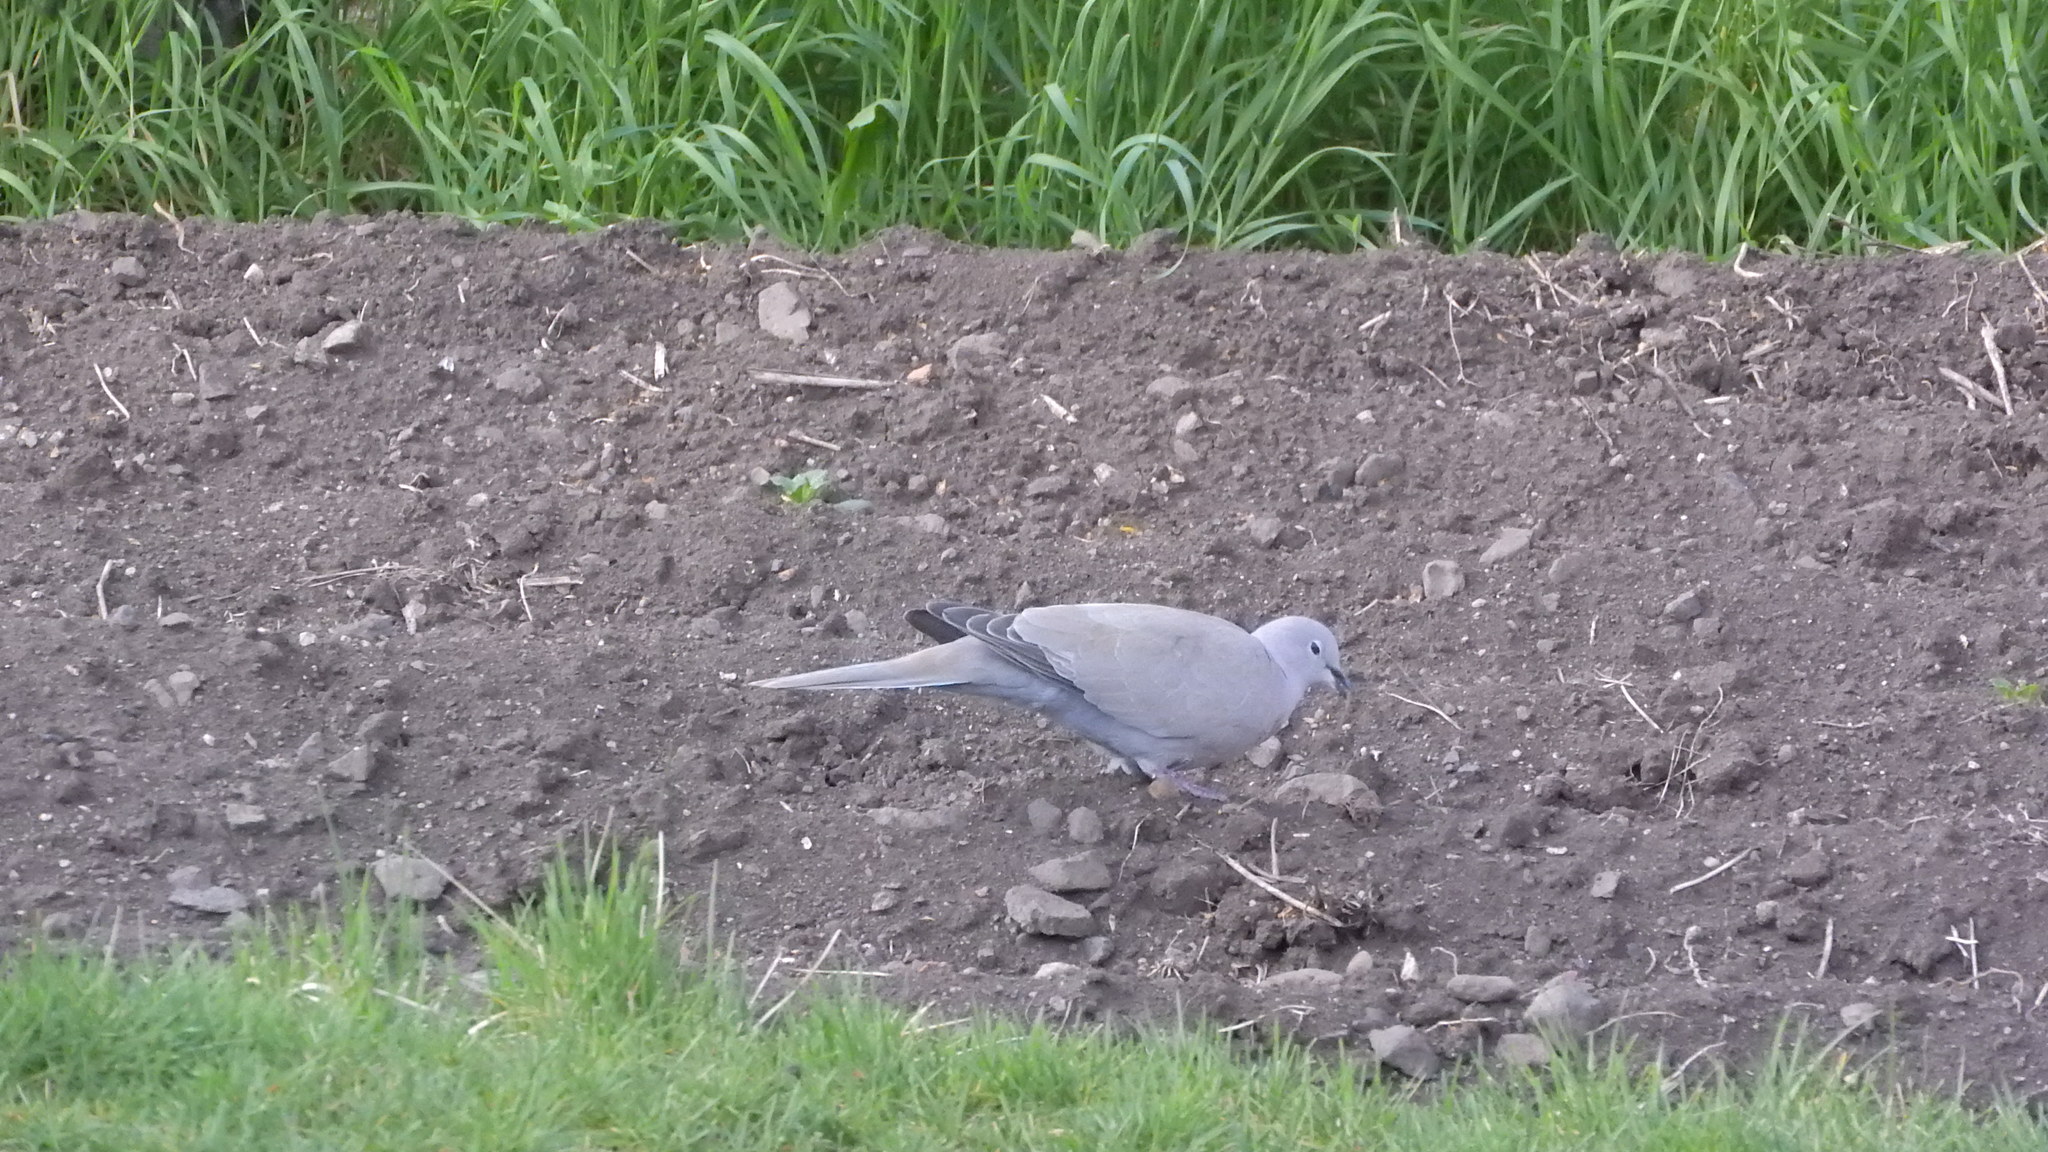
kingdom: Animalia
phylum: Chordata
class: Aves
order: Columbiformes
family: Columbidae
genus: Streptopelia
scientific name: Streptopelia decaocto
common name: Eurasian collared dove
